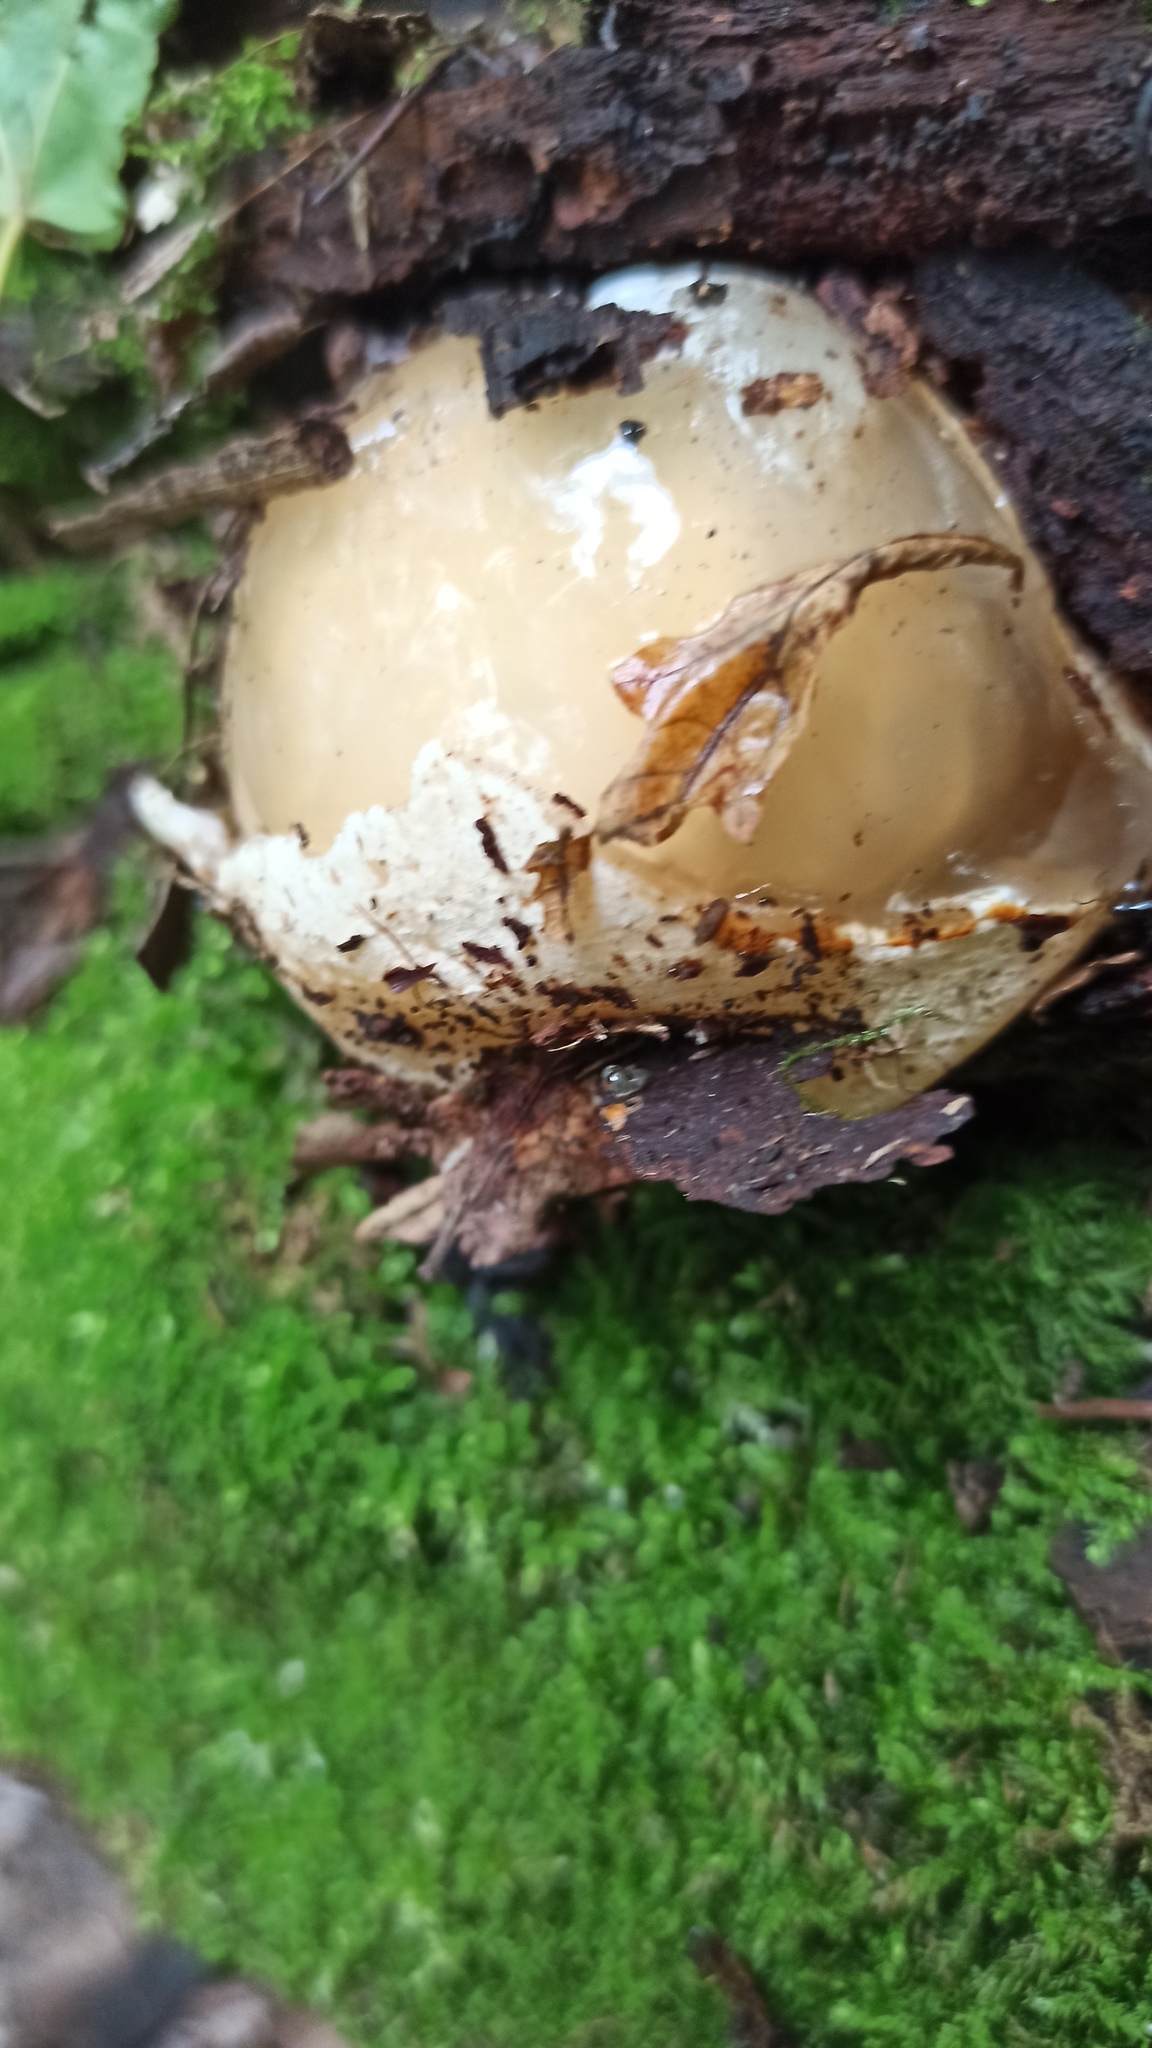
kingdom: Fungi
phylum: Basidiomycota
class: Agaricomycetes
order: Phallales
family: Phallaceae
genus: Phallus
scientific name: Phallus impudicus
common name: Common stinkhorn
